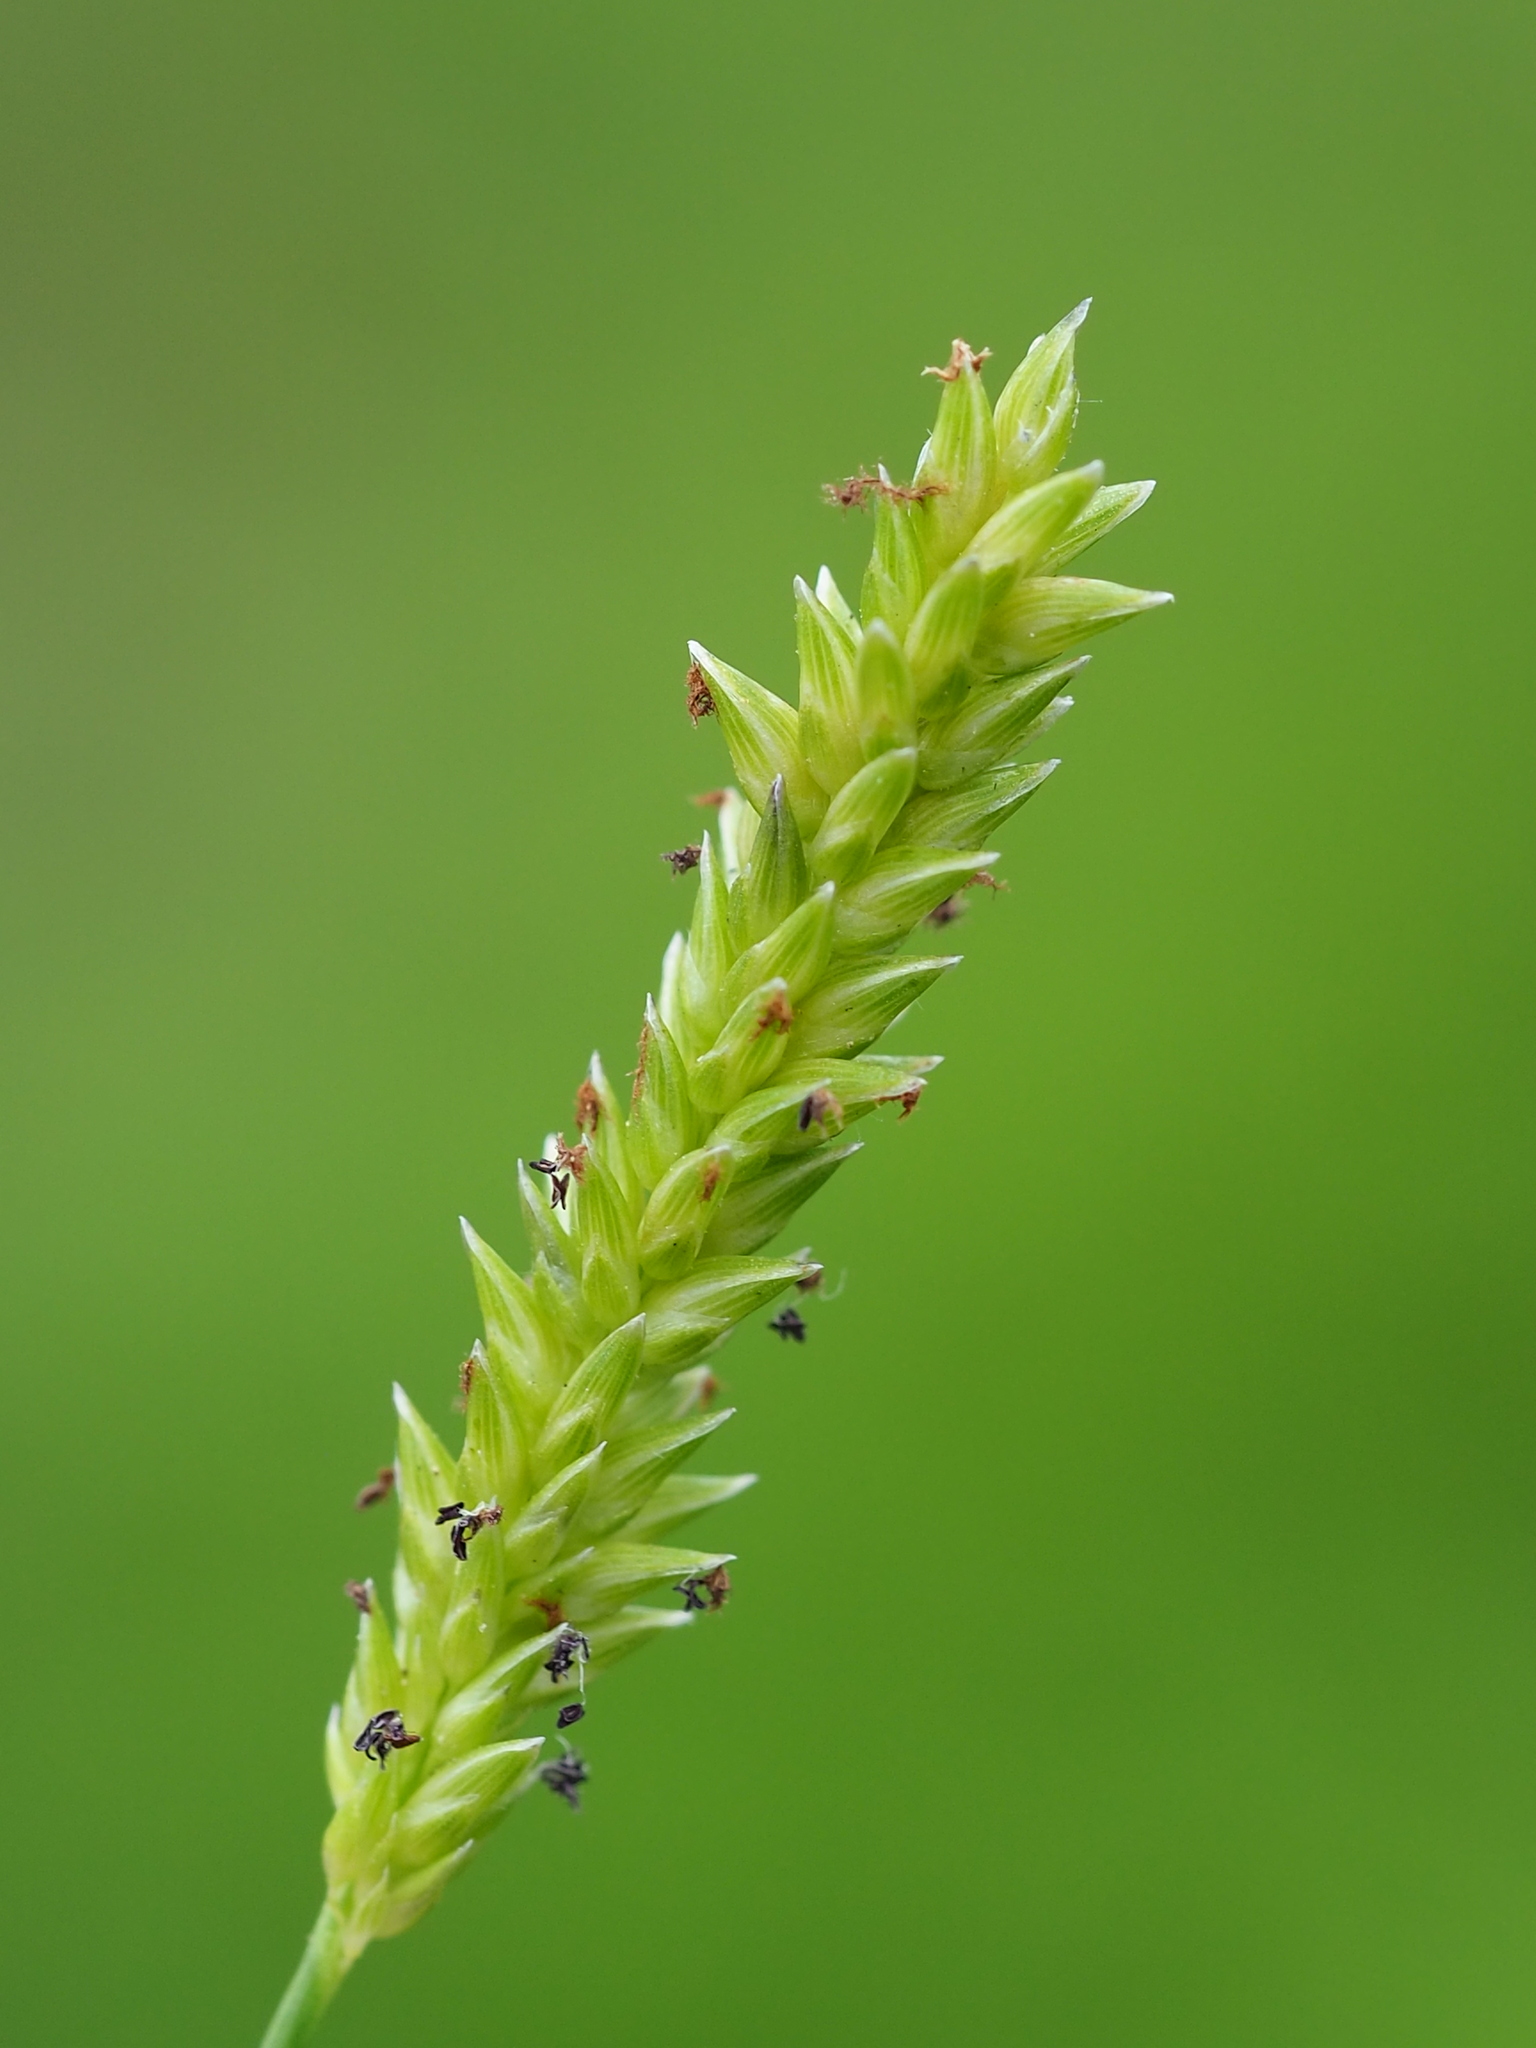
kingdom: Plantae
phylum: Tracheophyta
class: Liliopsida
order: Poales
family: Poaceae
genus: Sacciolepis
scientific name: Sacciolepis indica
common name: Glenwoodgrass
